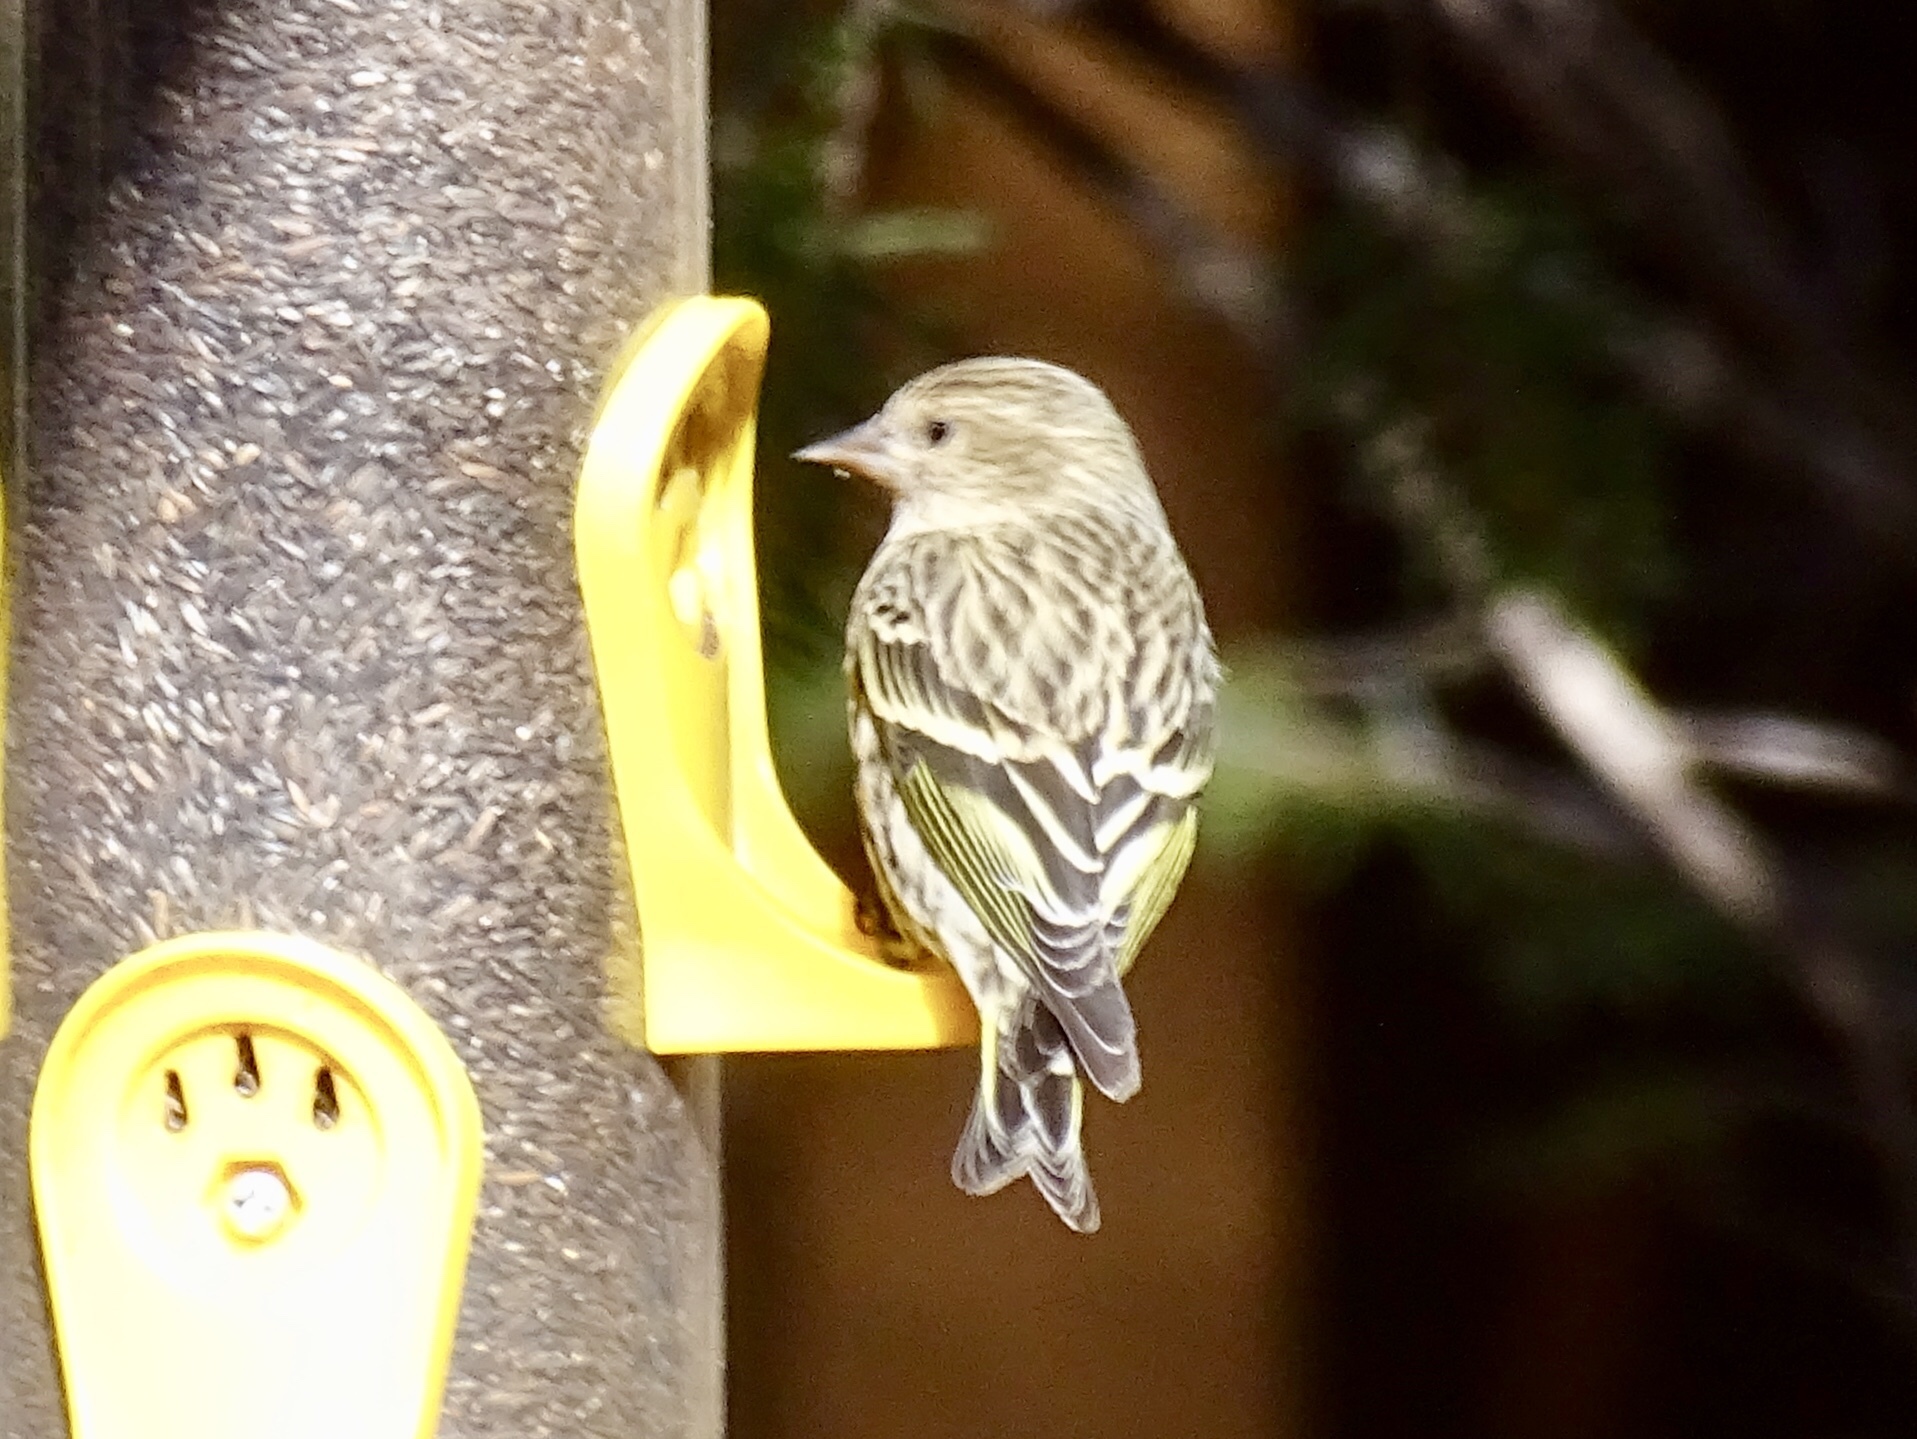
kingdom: Animalia
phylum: Chordata
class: Aves
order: Passeriformes
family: Fringillidae
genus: Spinus
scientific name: Spinus pinus
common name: Pine siskin
